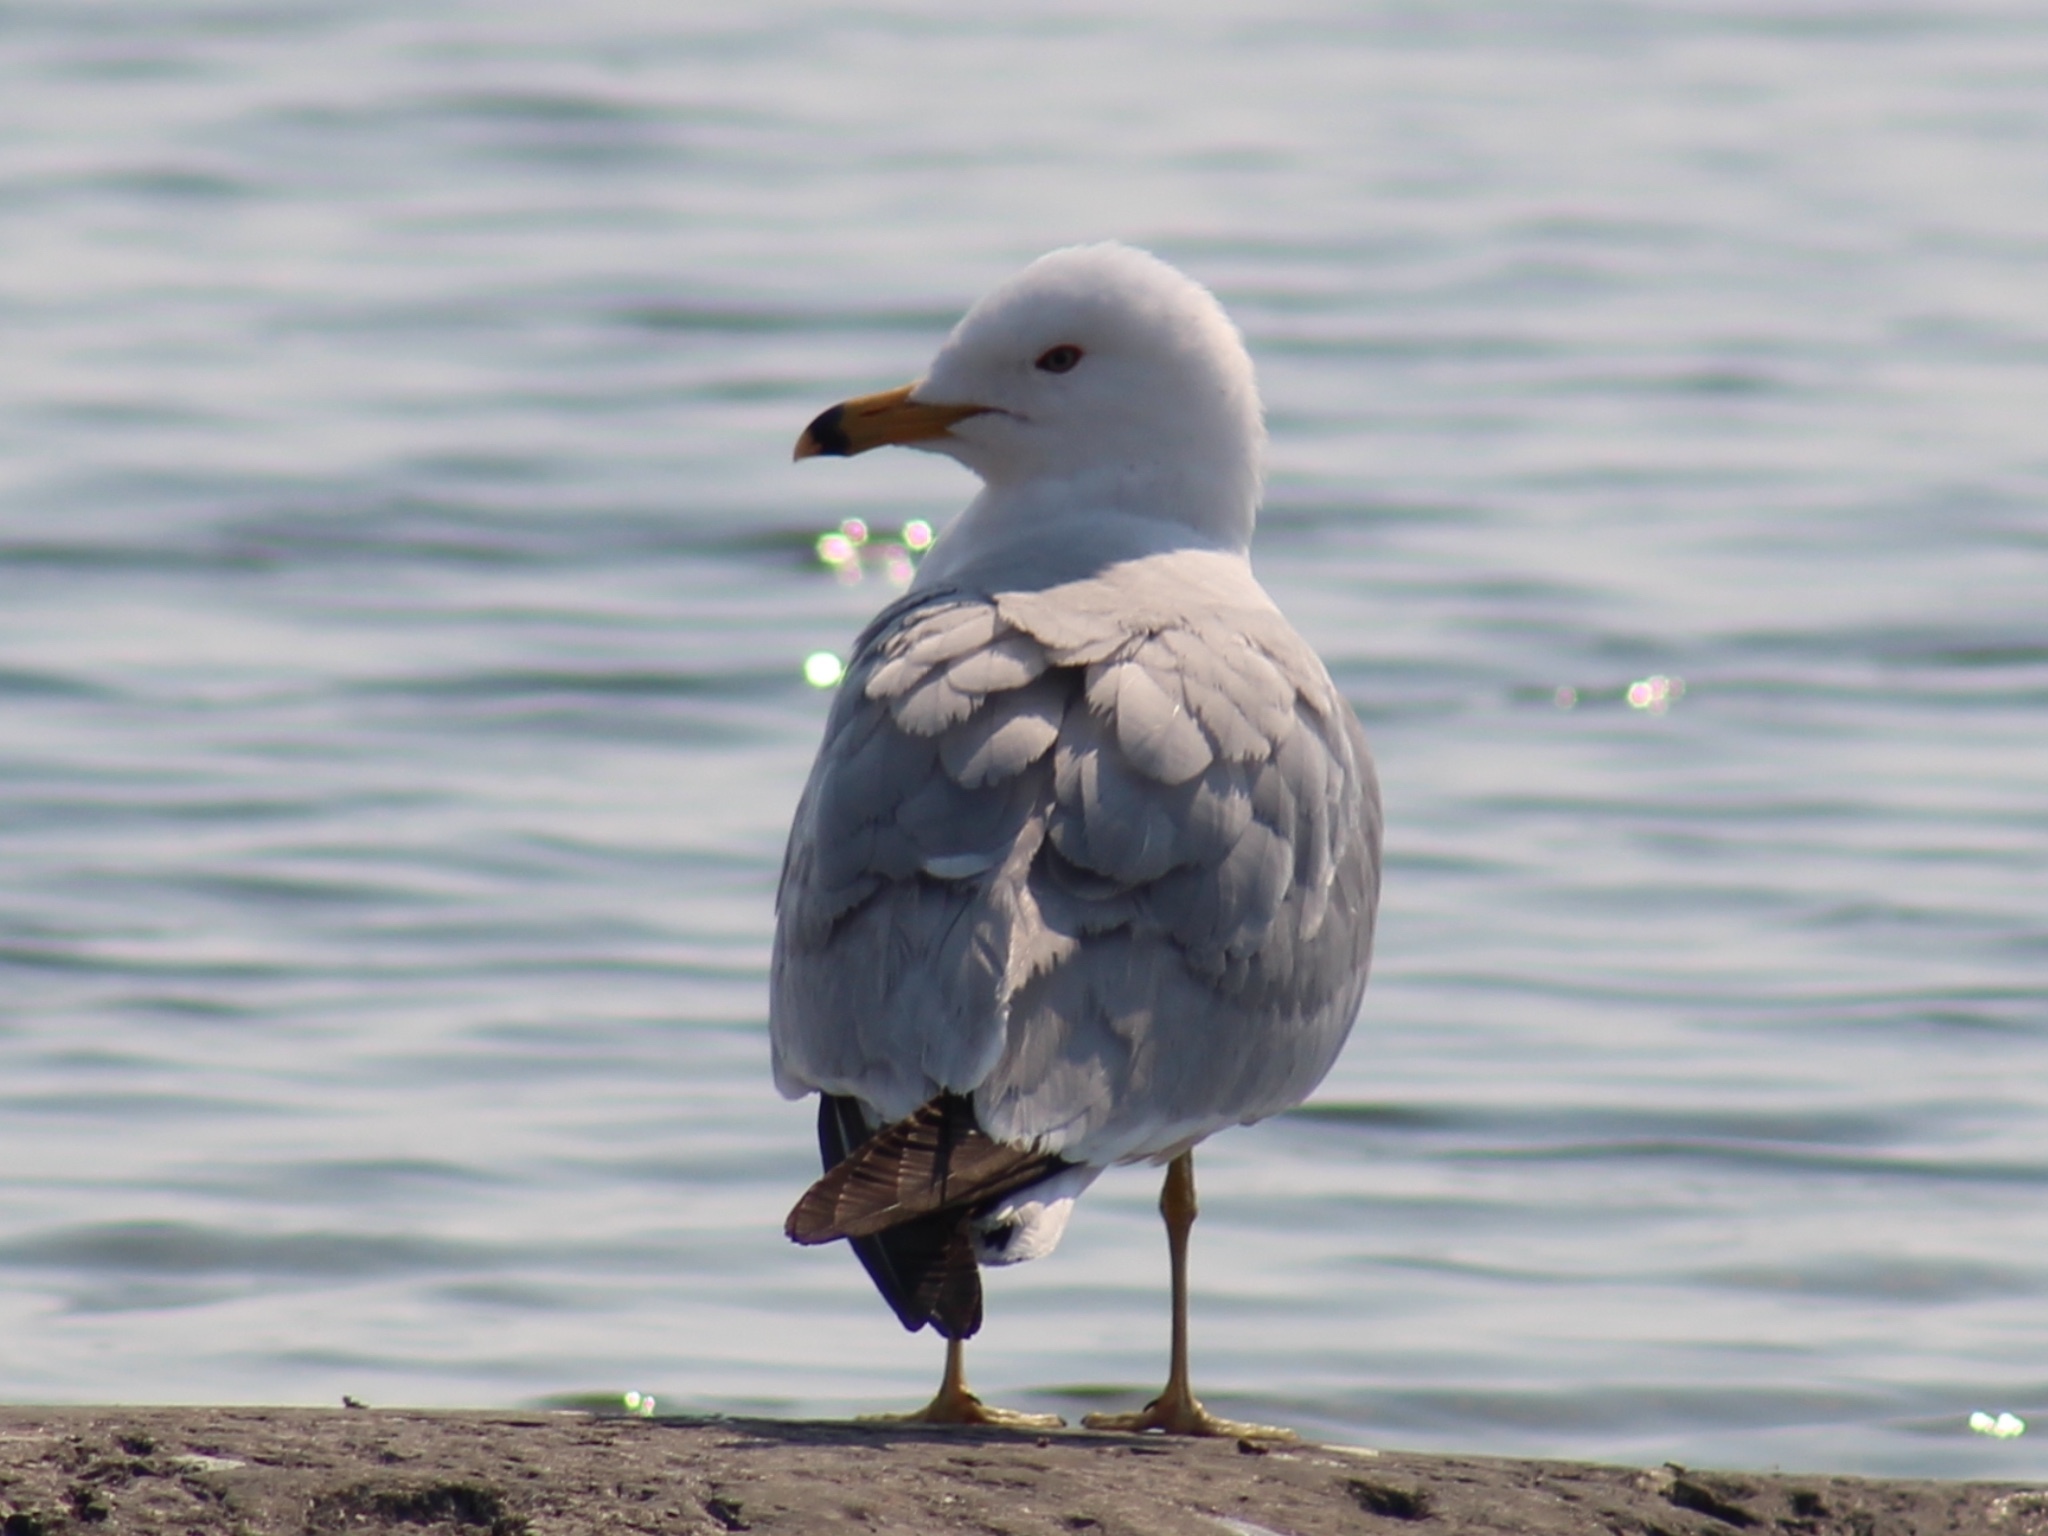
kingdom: Animalia
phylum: Chordata
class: Aves
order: Charadriiformes
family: Laridae
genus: Larus
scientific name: Larus delawarensis
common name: Ring-billed gull
